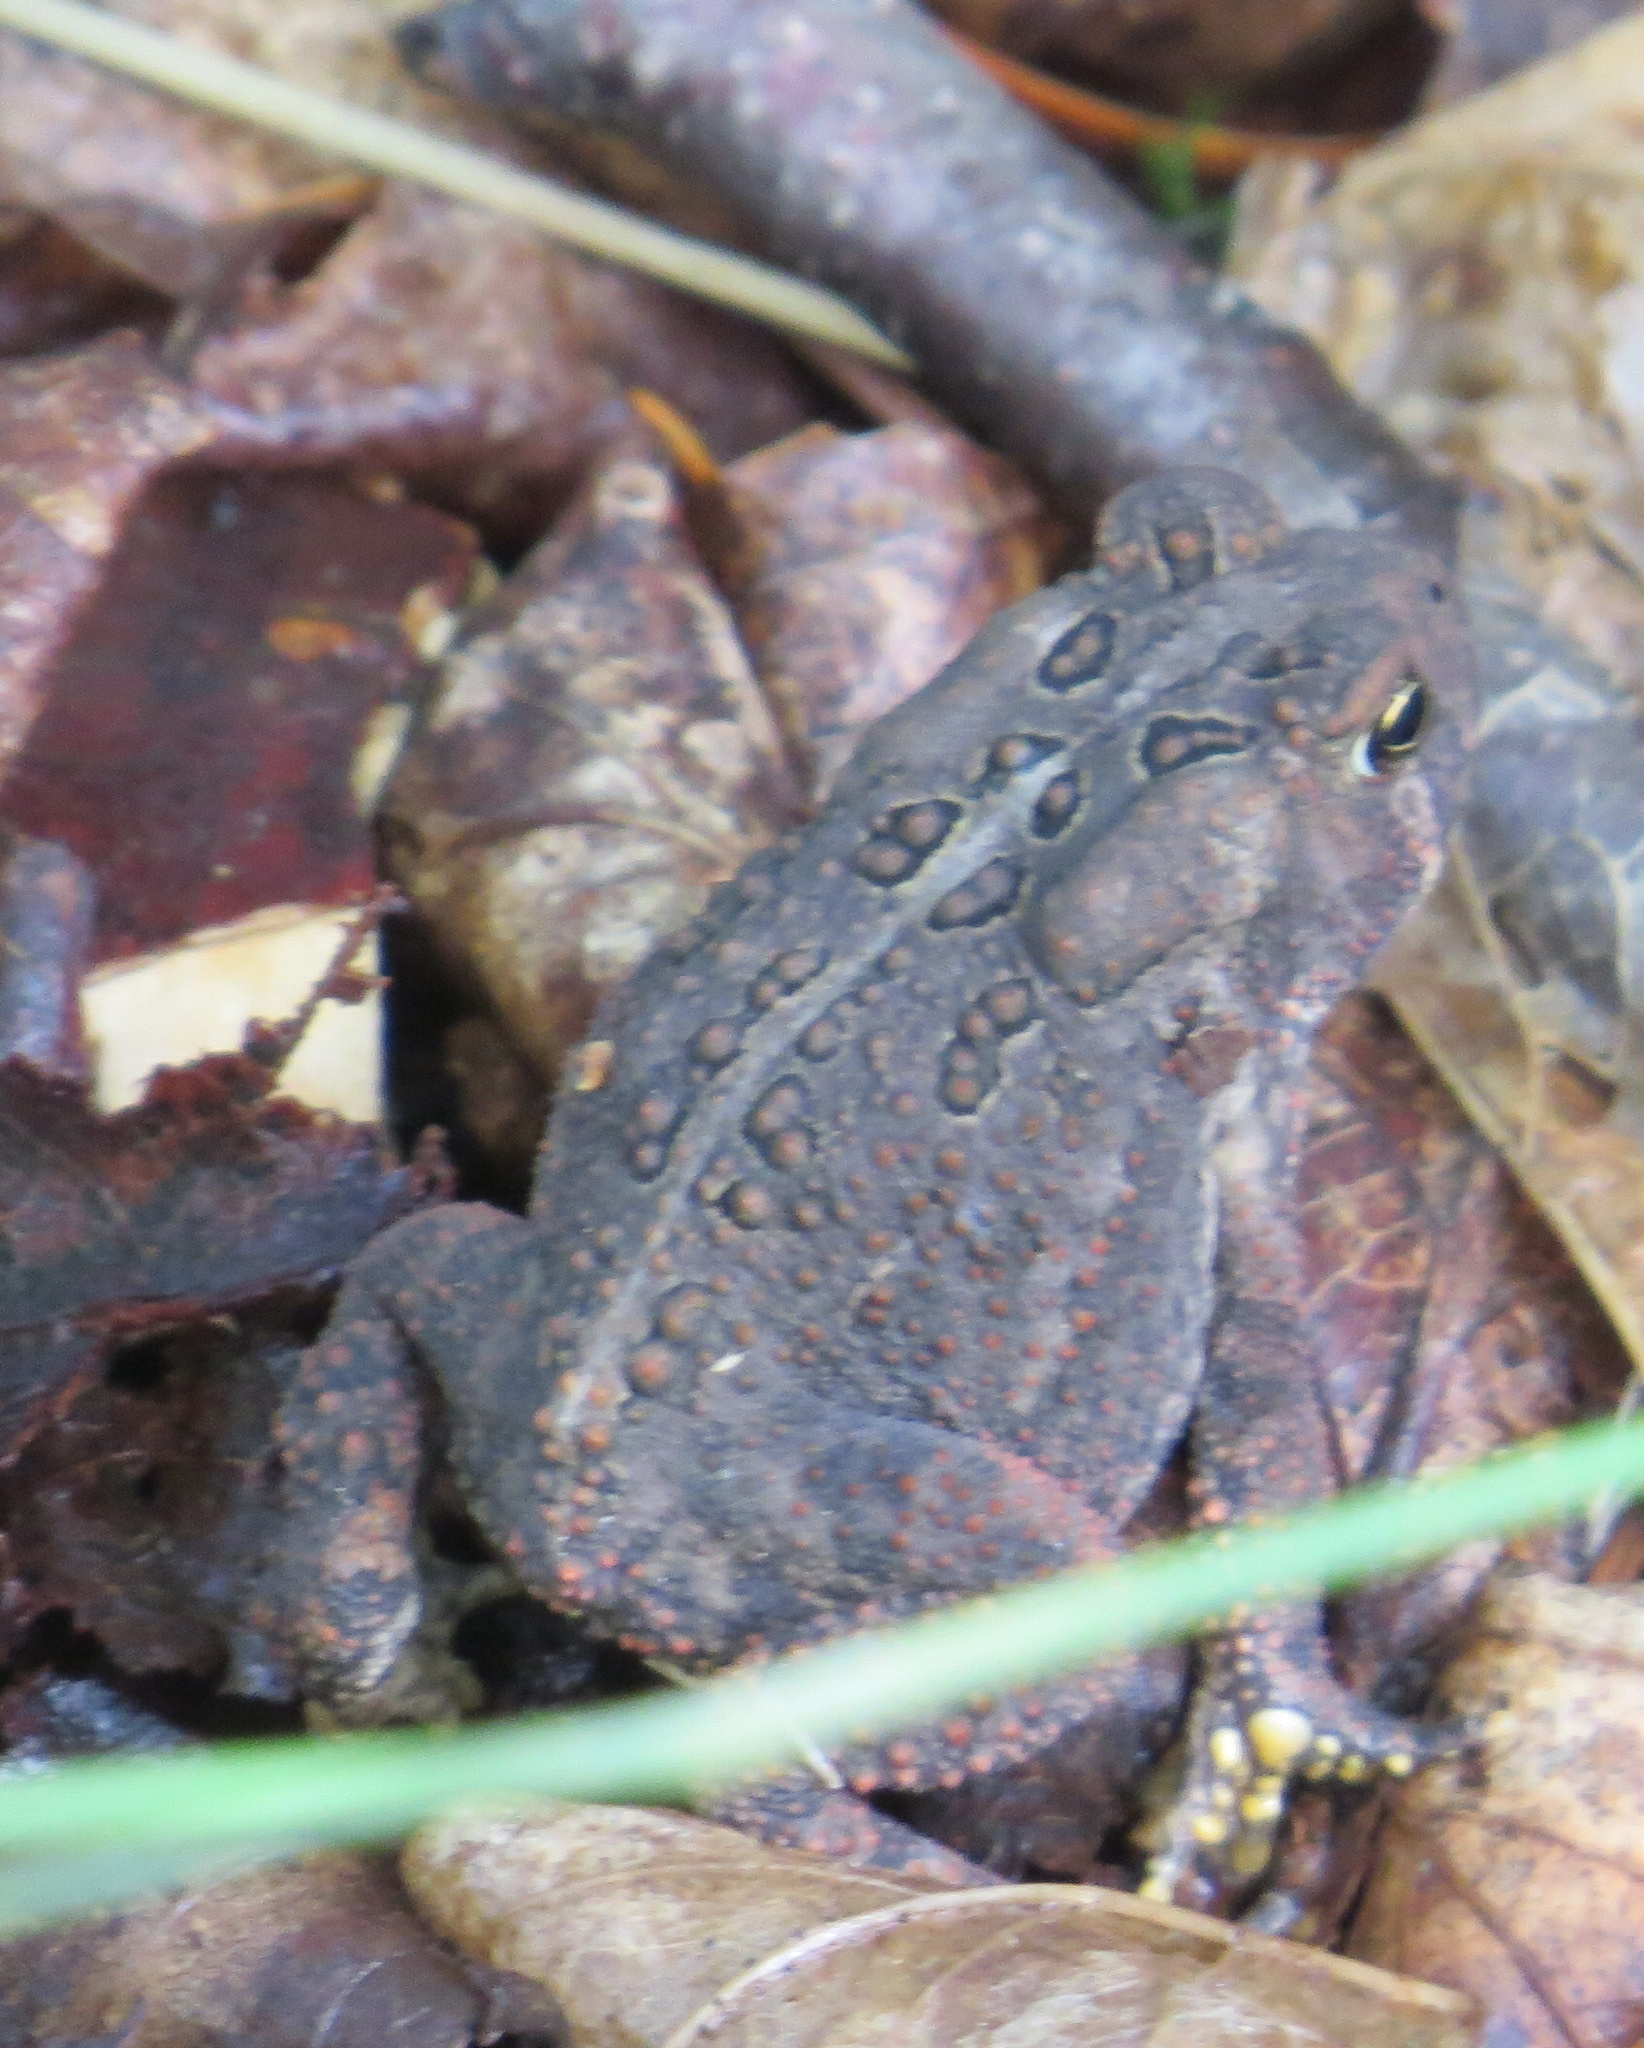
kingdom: Animalia
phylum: Chordata
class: Amphibia
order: Anura
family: Bufonidae
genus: Anaxyrus
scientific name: Anaxyrus americanus
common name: American toad
